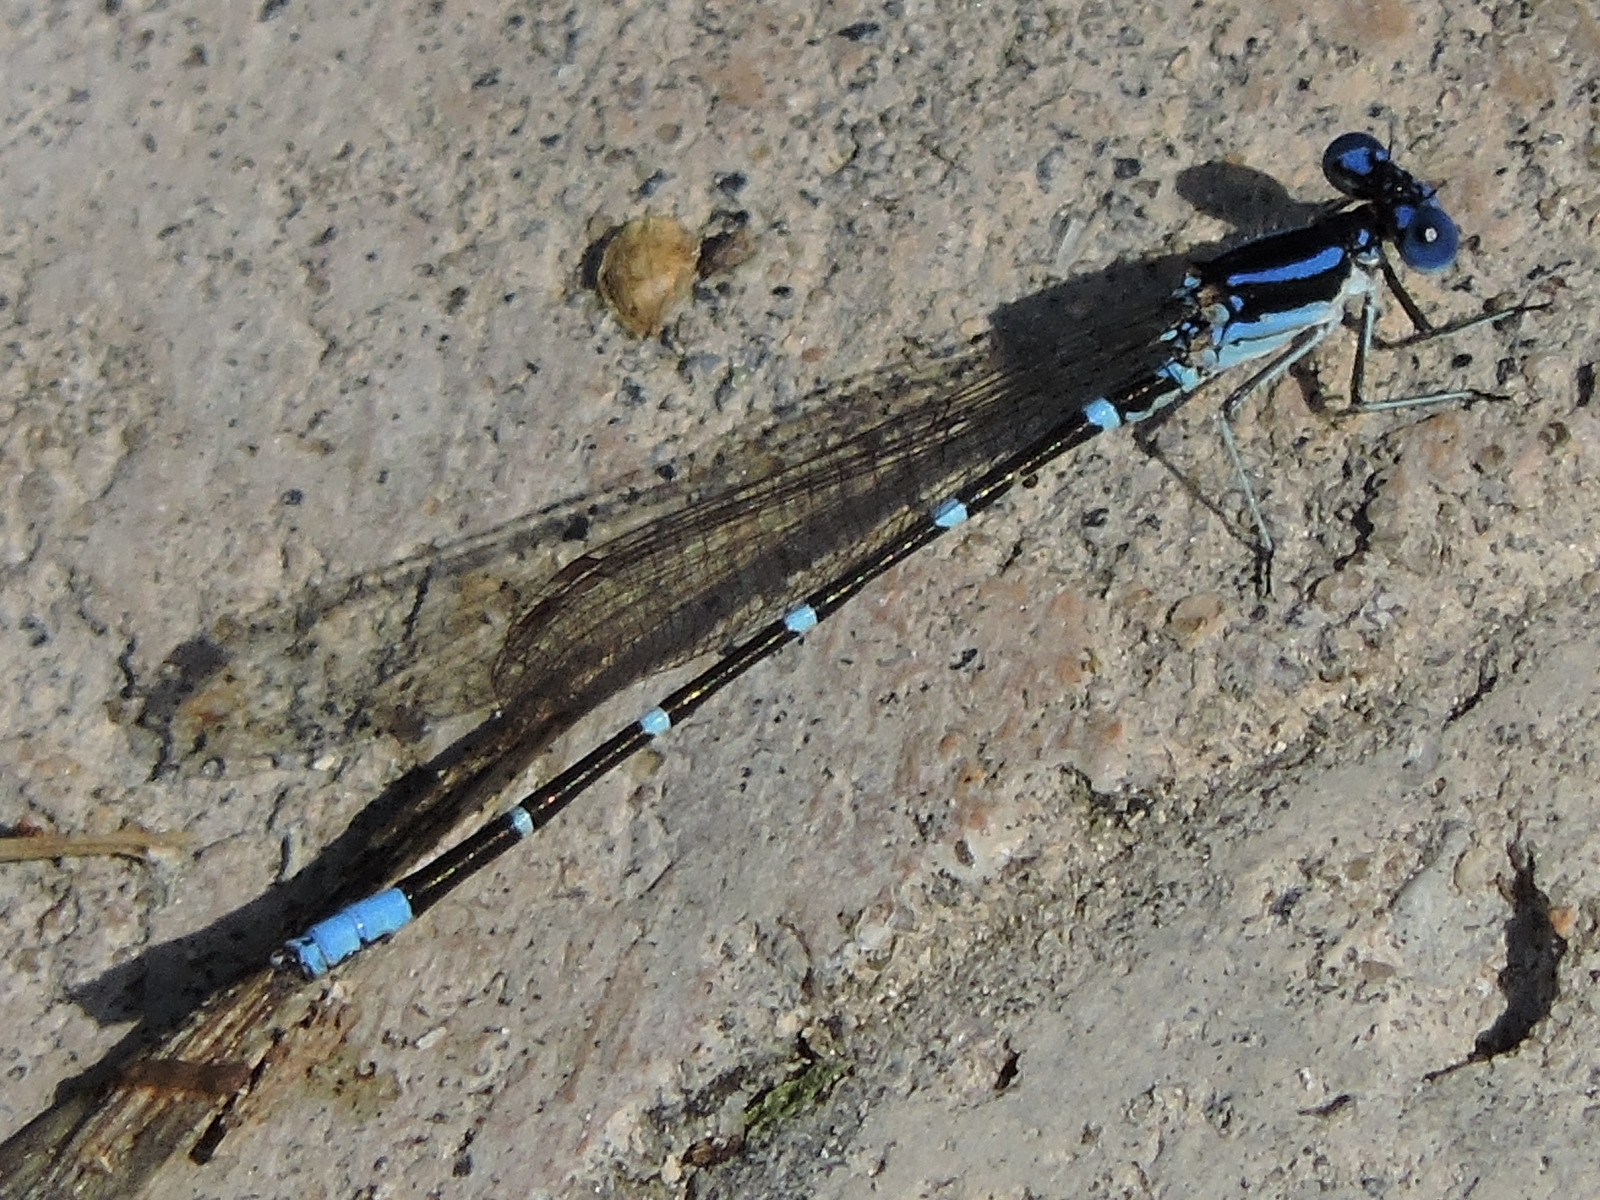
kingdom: Animalia
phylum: Arthropoda
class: Insecta
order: Odonata
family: Coenagrionidae
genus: Argia
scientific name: Argia sedula
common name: Blue-ringed dancer
